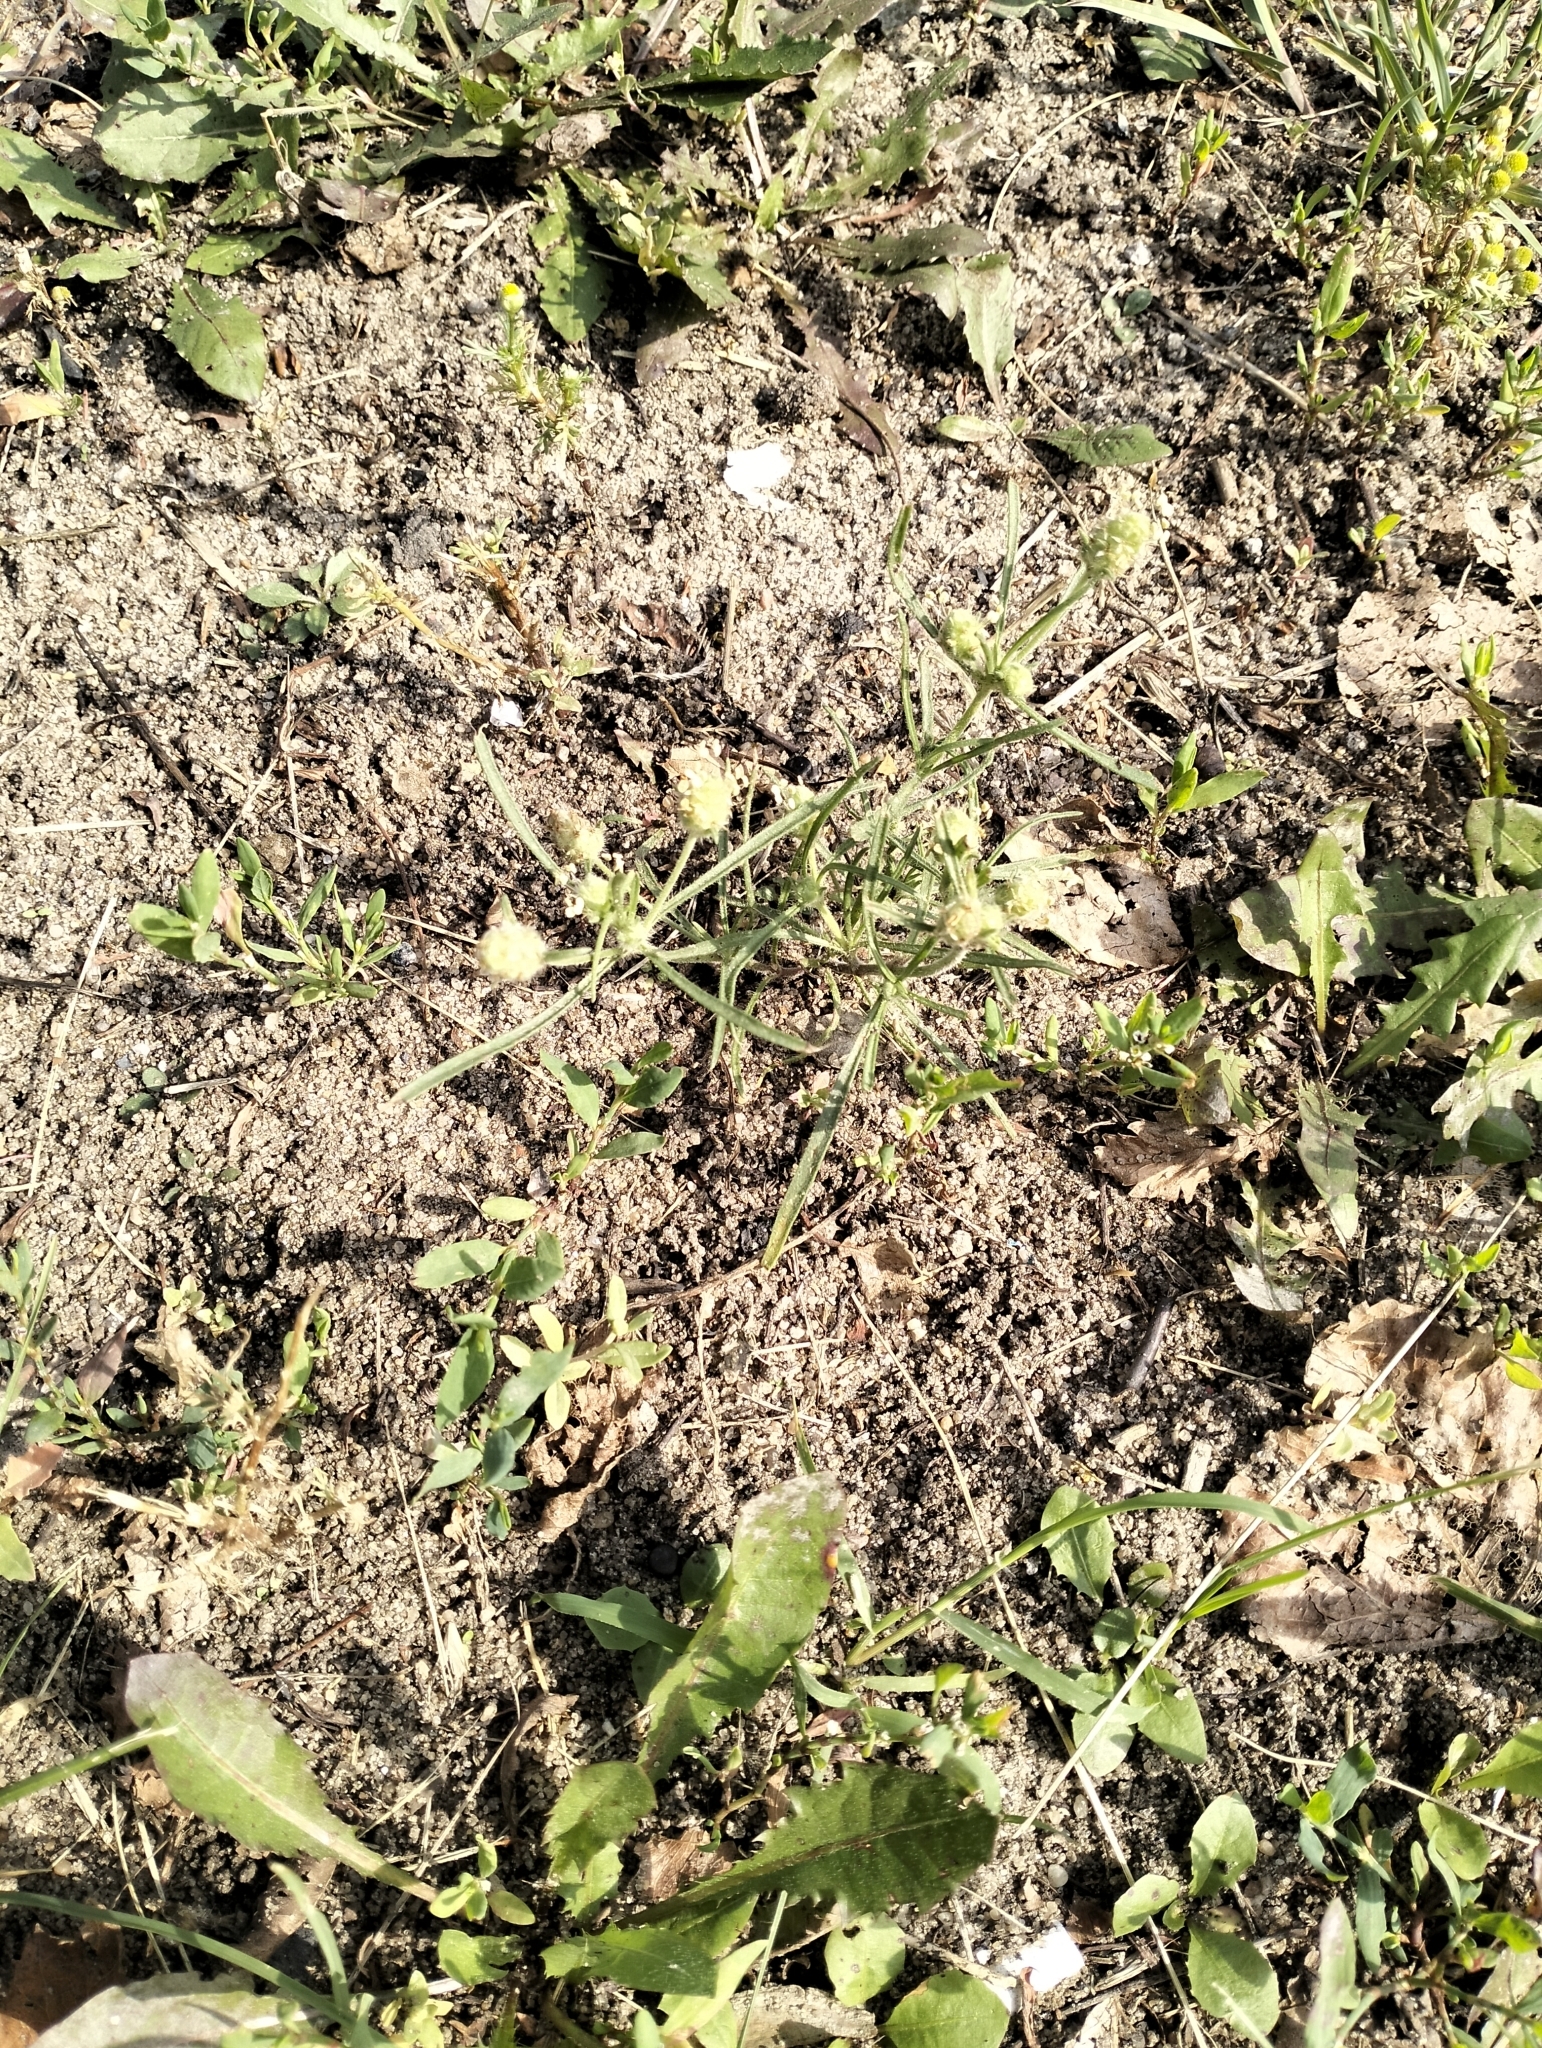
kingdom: Plantae
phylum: Tracheophyta
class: Magnoliopsida
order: Lamiales
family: Plantaginaceae
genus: Plantago
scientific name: Plantago arenaria
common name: Branched plantain
